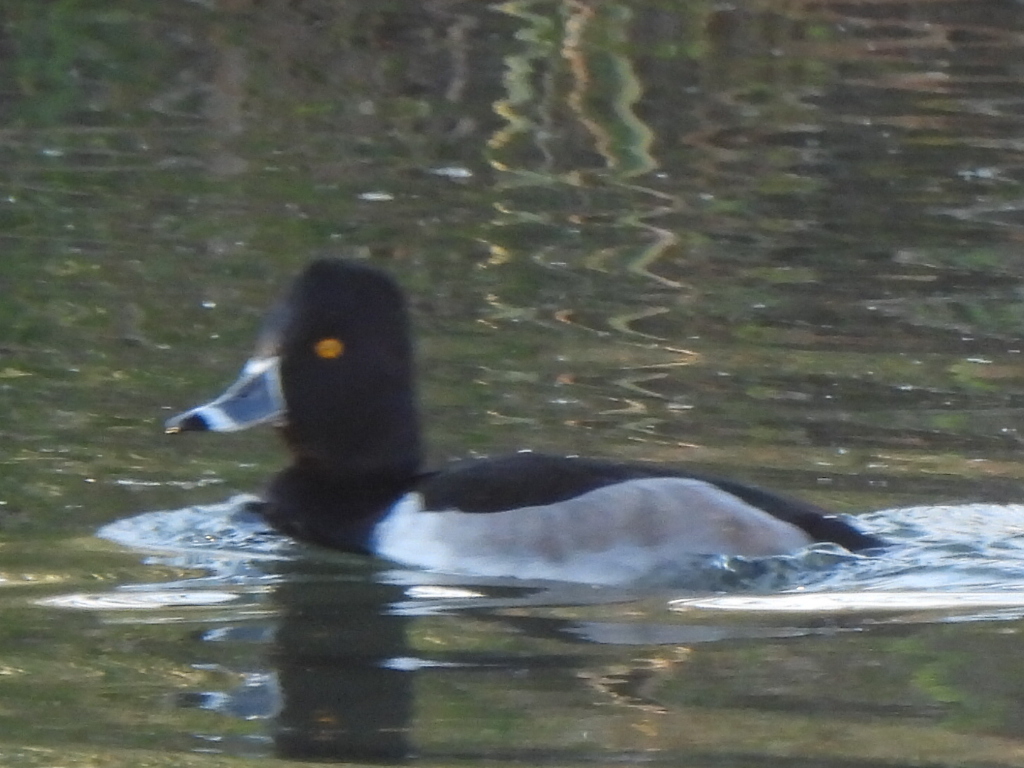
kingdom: Animalia
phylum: Chordata
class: Aves
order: Anseriformes
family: Anatidae
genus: Aythya
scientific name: Aythya collaris
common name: Ring-necked duck
